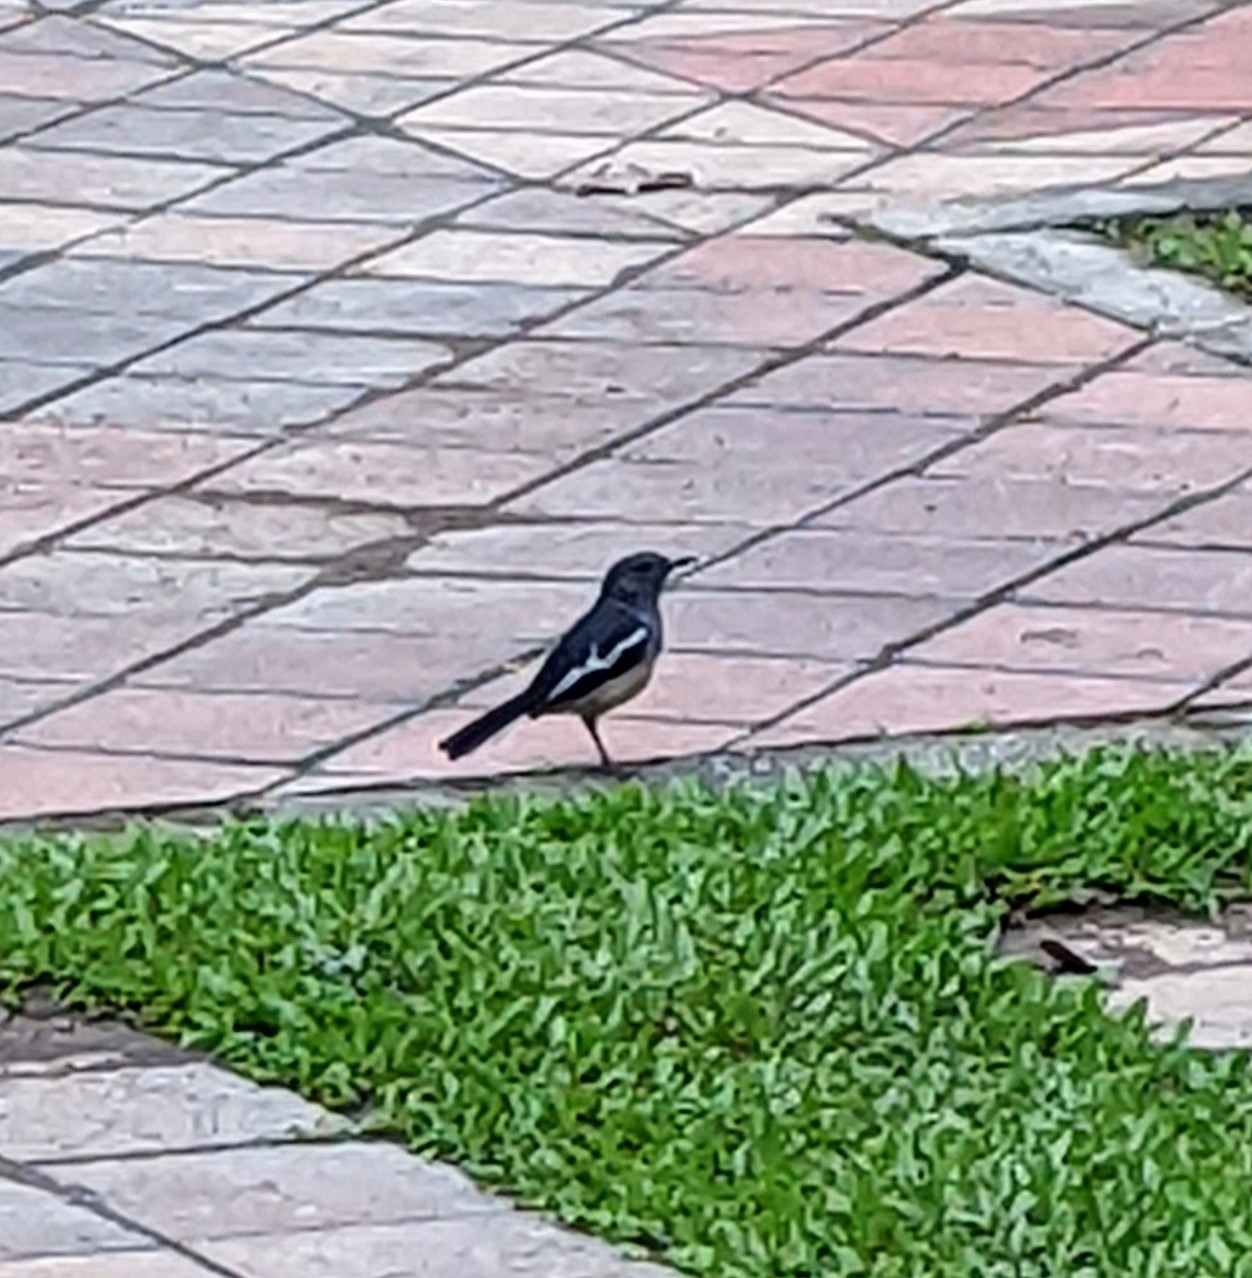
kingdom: Animalia
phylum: Chordata
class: Aves
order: Passeriformes
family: Muscicapidae
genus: Copsychus
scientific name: Copsychus saularis
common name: Oriental magpie-robin
